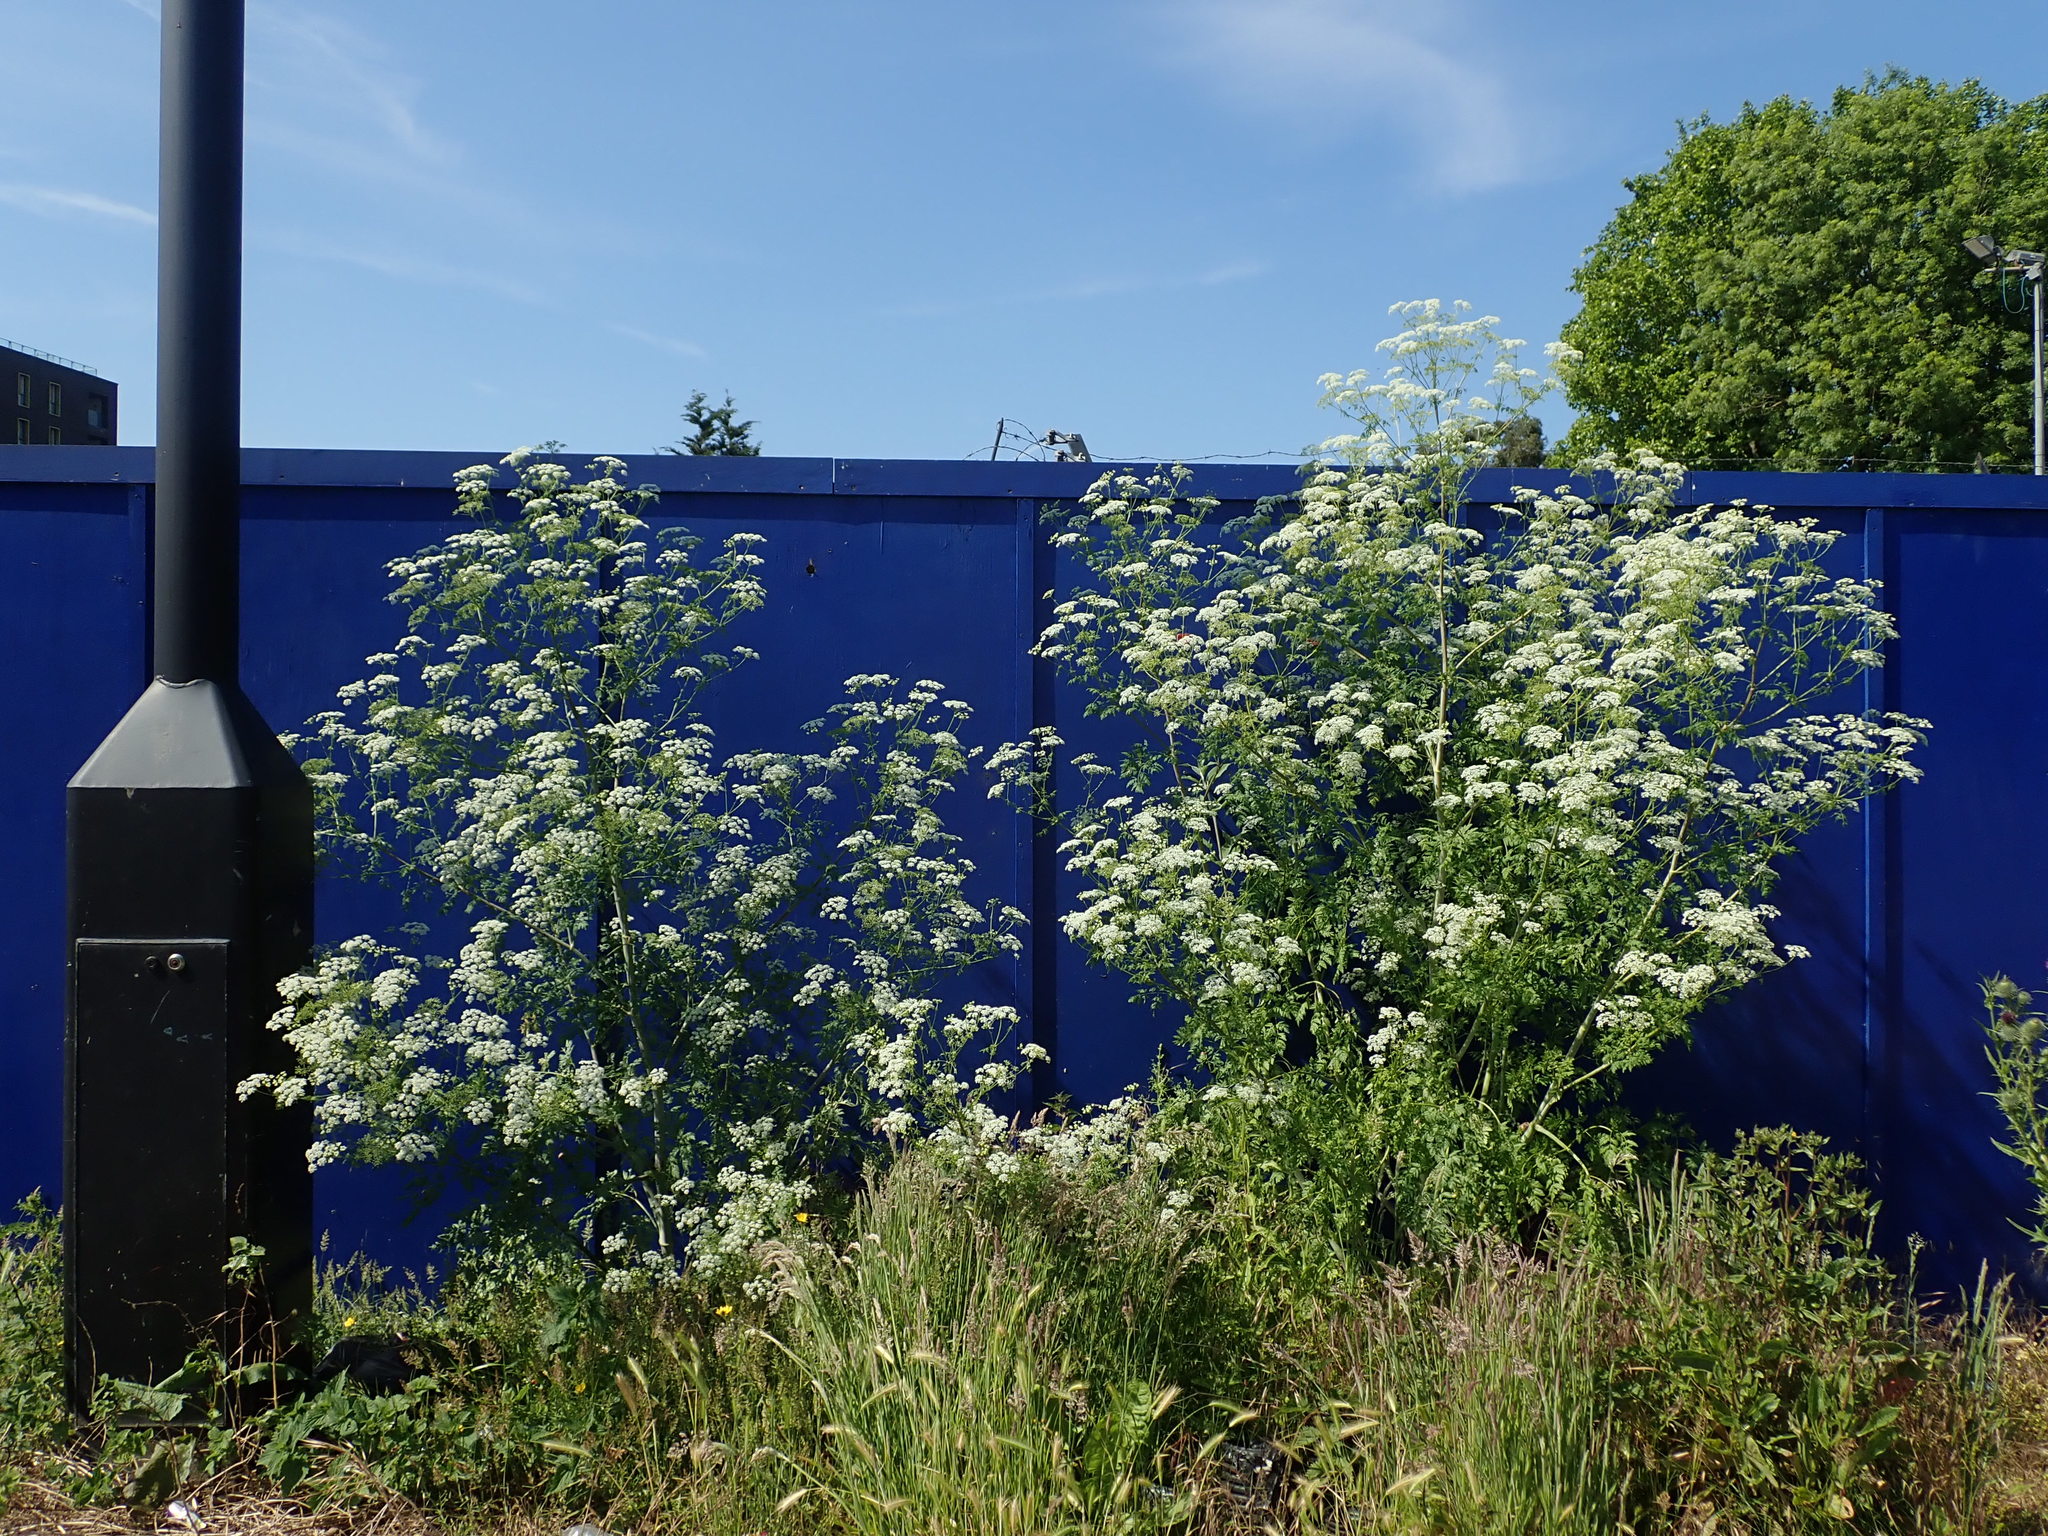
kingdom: Plantae
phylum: Tracheophyta
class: Magnoliopsida
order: Apiales
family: Apiaceae
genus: Conium
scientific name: Conium maculatum
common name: Hemlock
